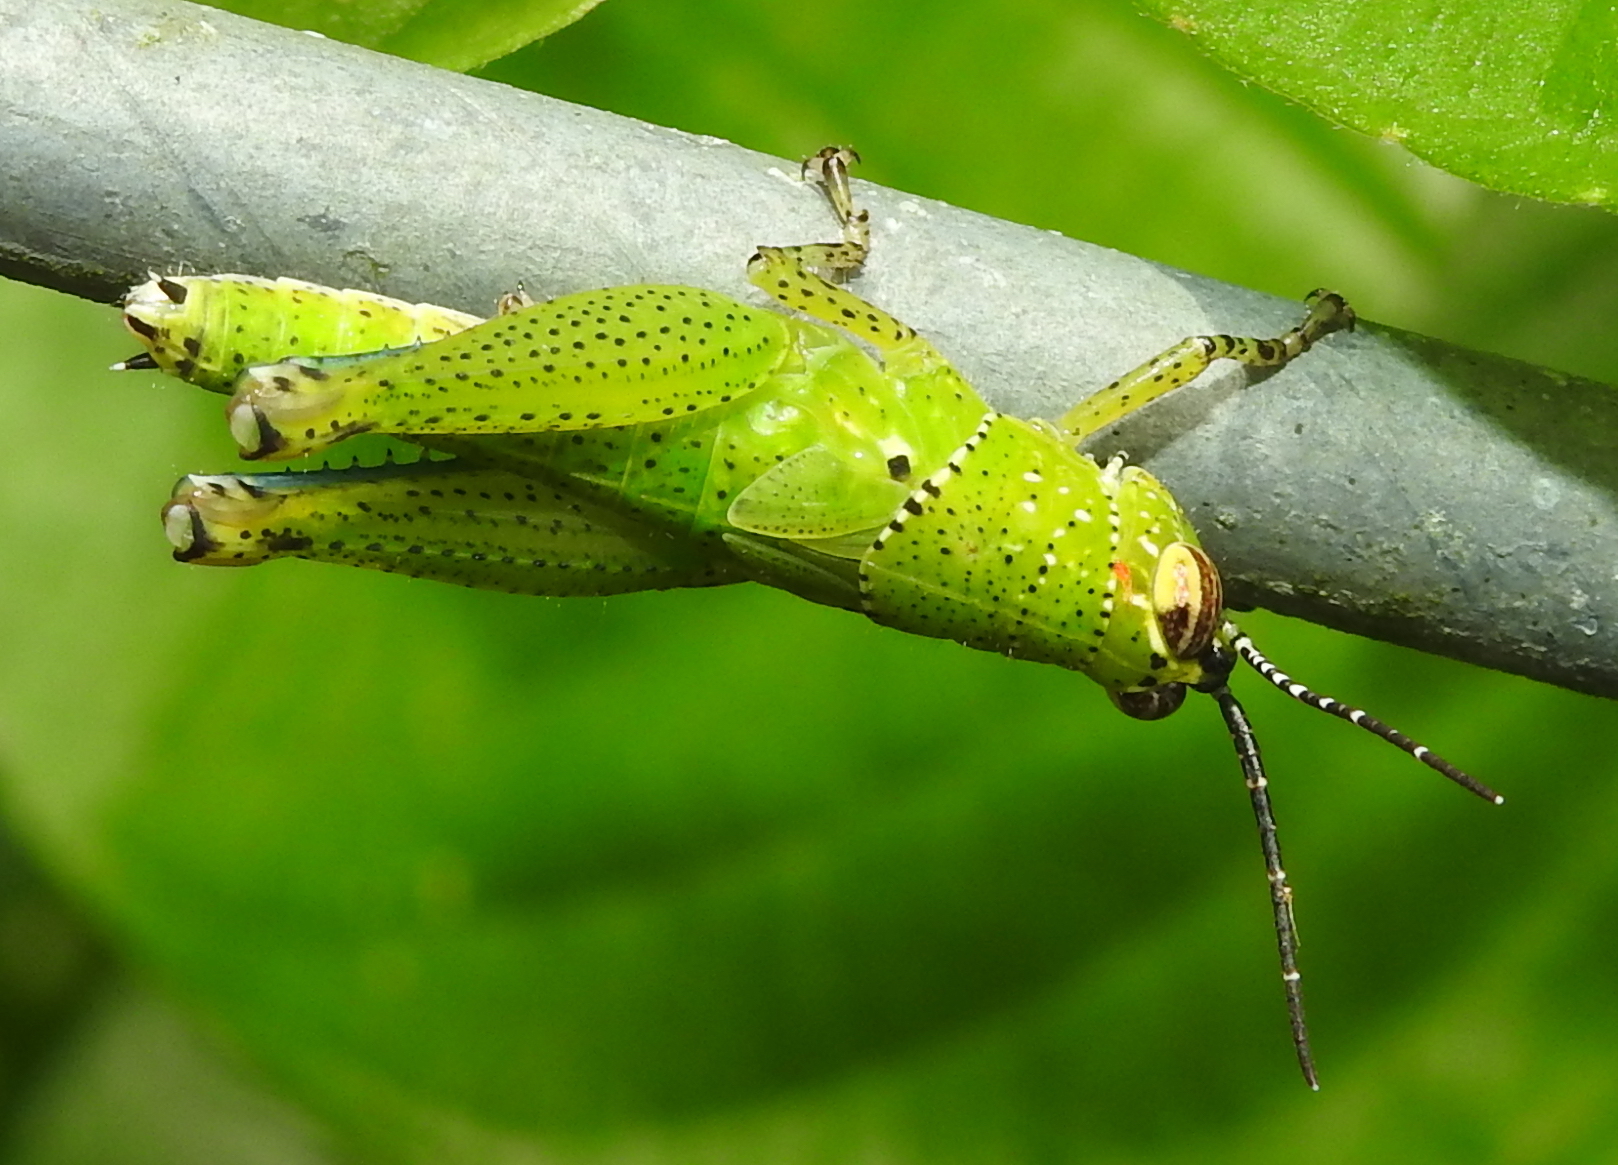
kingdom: Animalia
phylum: Arthropoda
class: Insecta
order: Orthoptera
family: Acrididae
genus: Xenocatantops
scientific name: Xenocatantops humile
